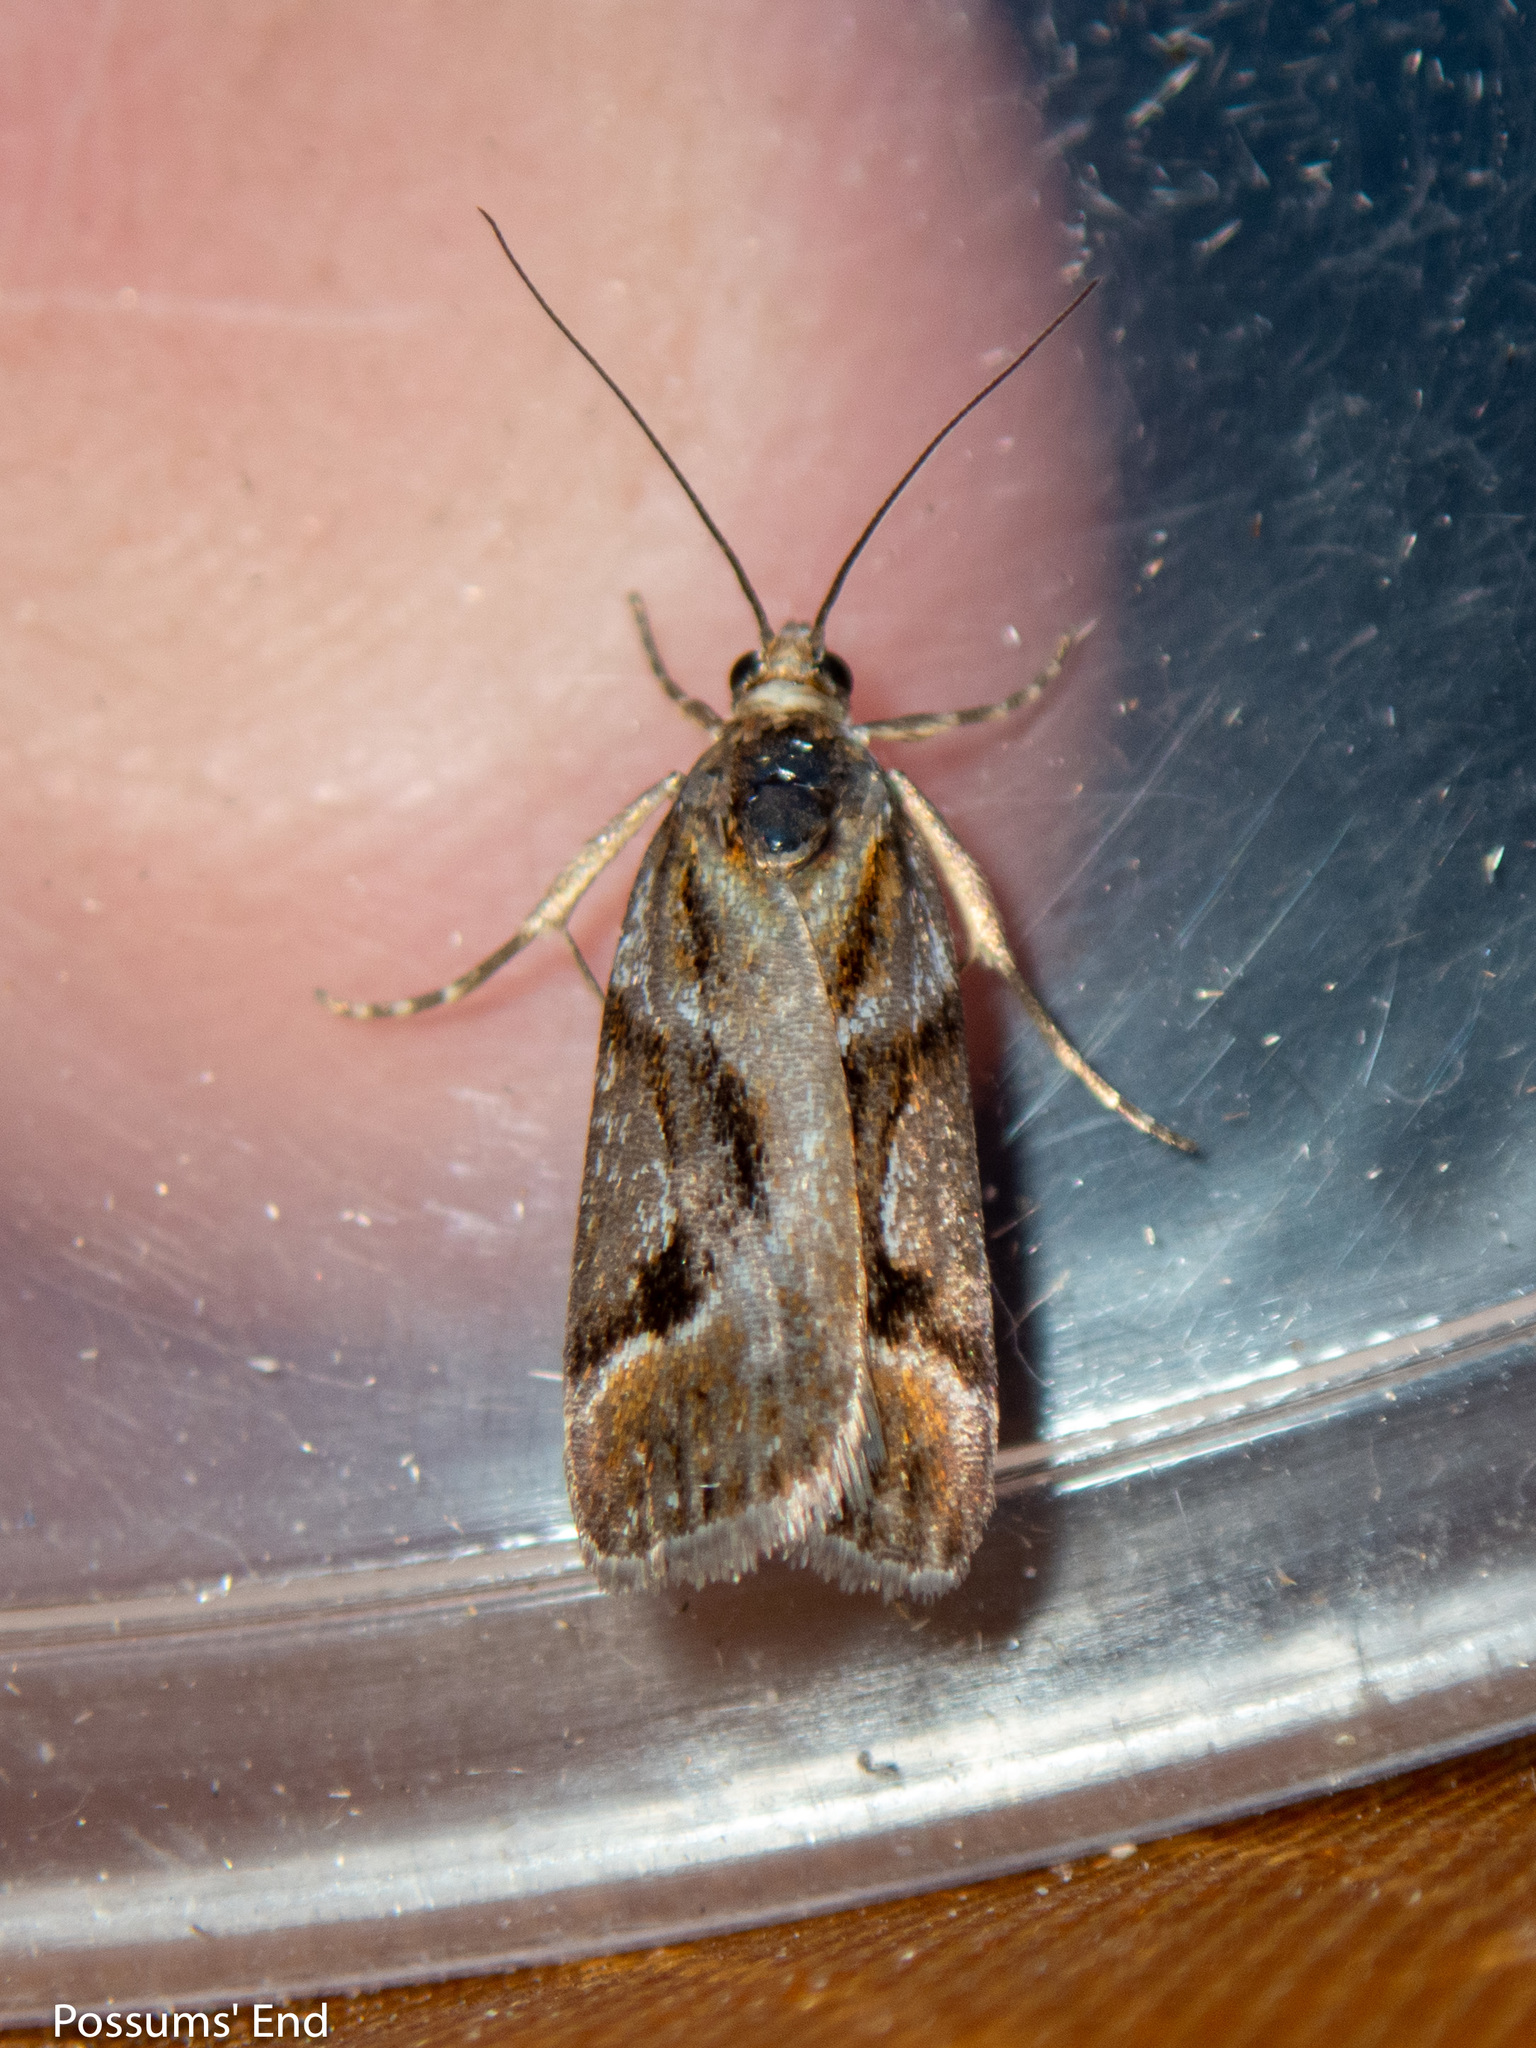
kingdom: Animalia
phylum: Arthropoda
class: Insecta
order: Lepidoptera
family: Crambidae
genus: Eudonia
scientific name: Eudonia hemicycla
